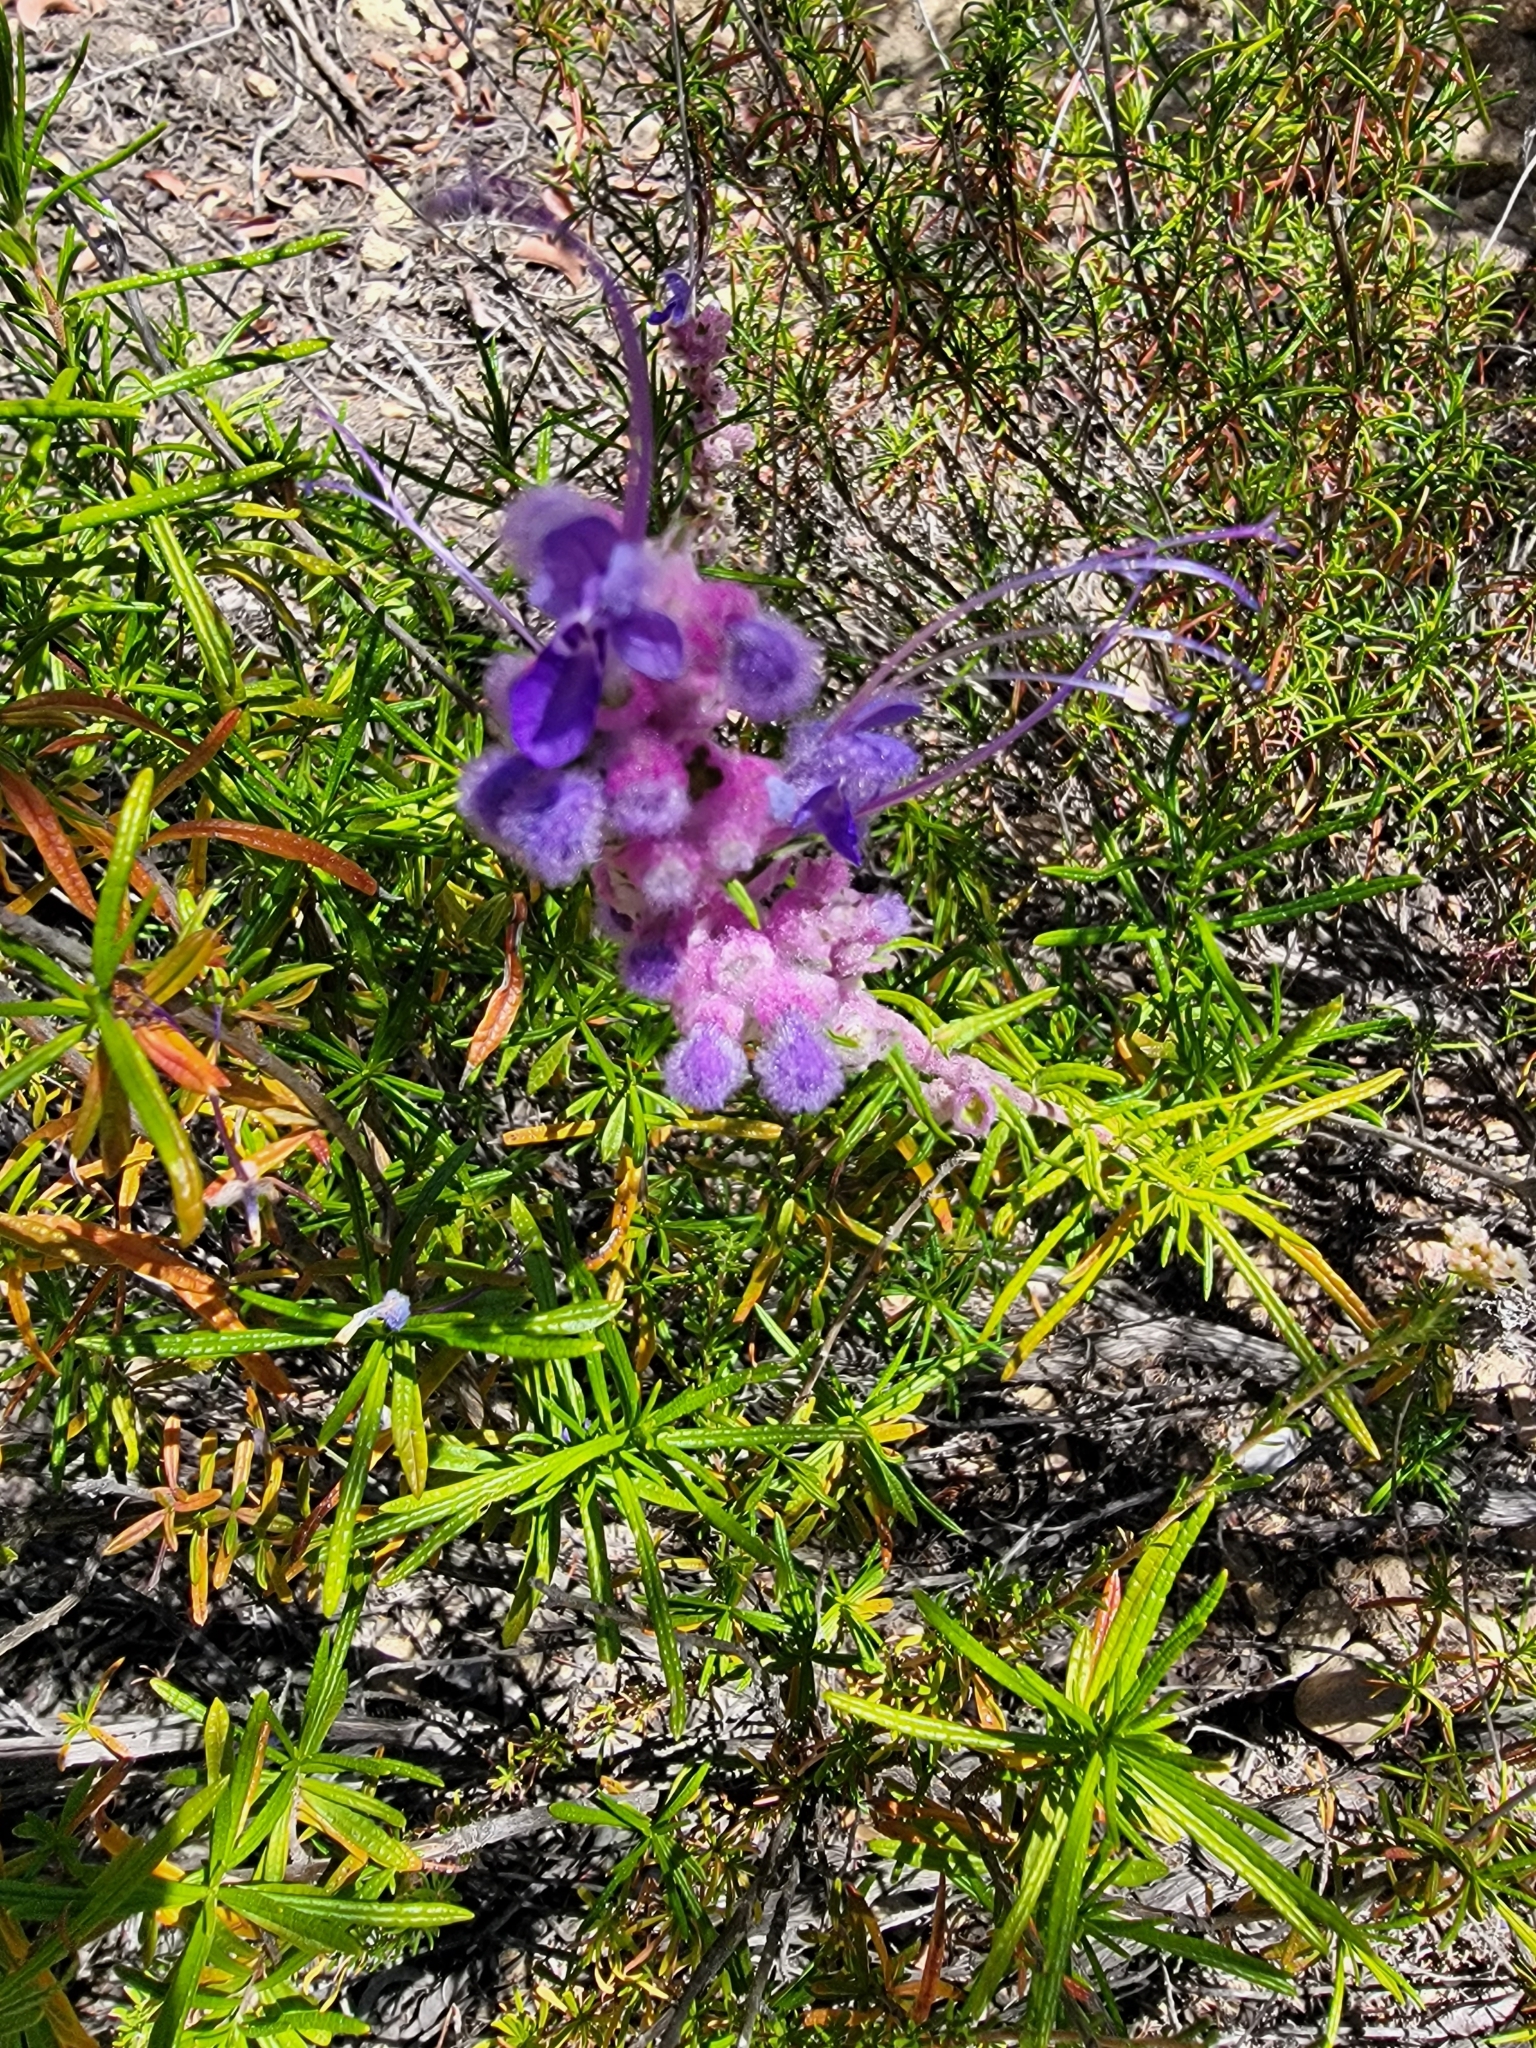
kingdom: Plantae
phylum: Tracheophyta
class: Magnoliopsida
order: Lamiales
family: Lamiaceae
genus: Trichostema
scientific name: Trichostema lanatum
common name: Woolly bluecurls
